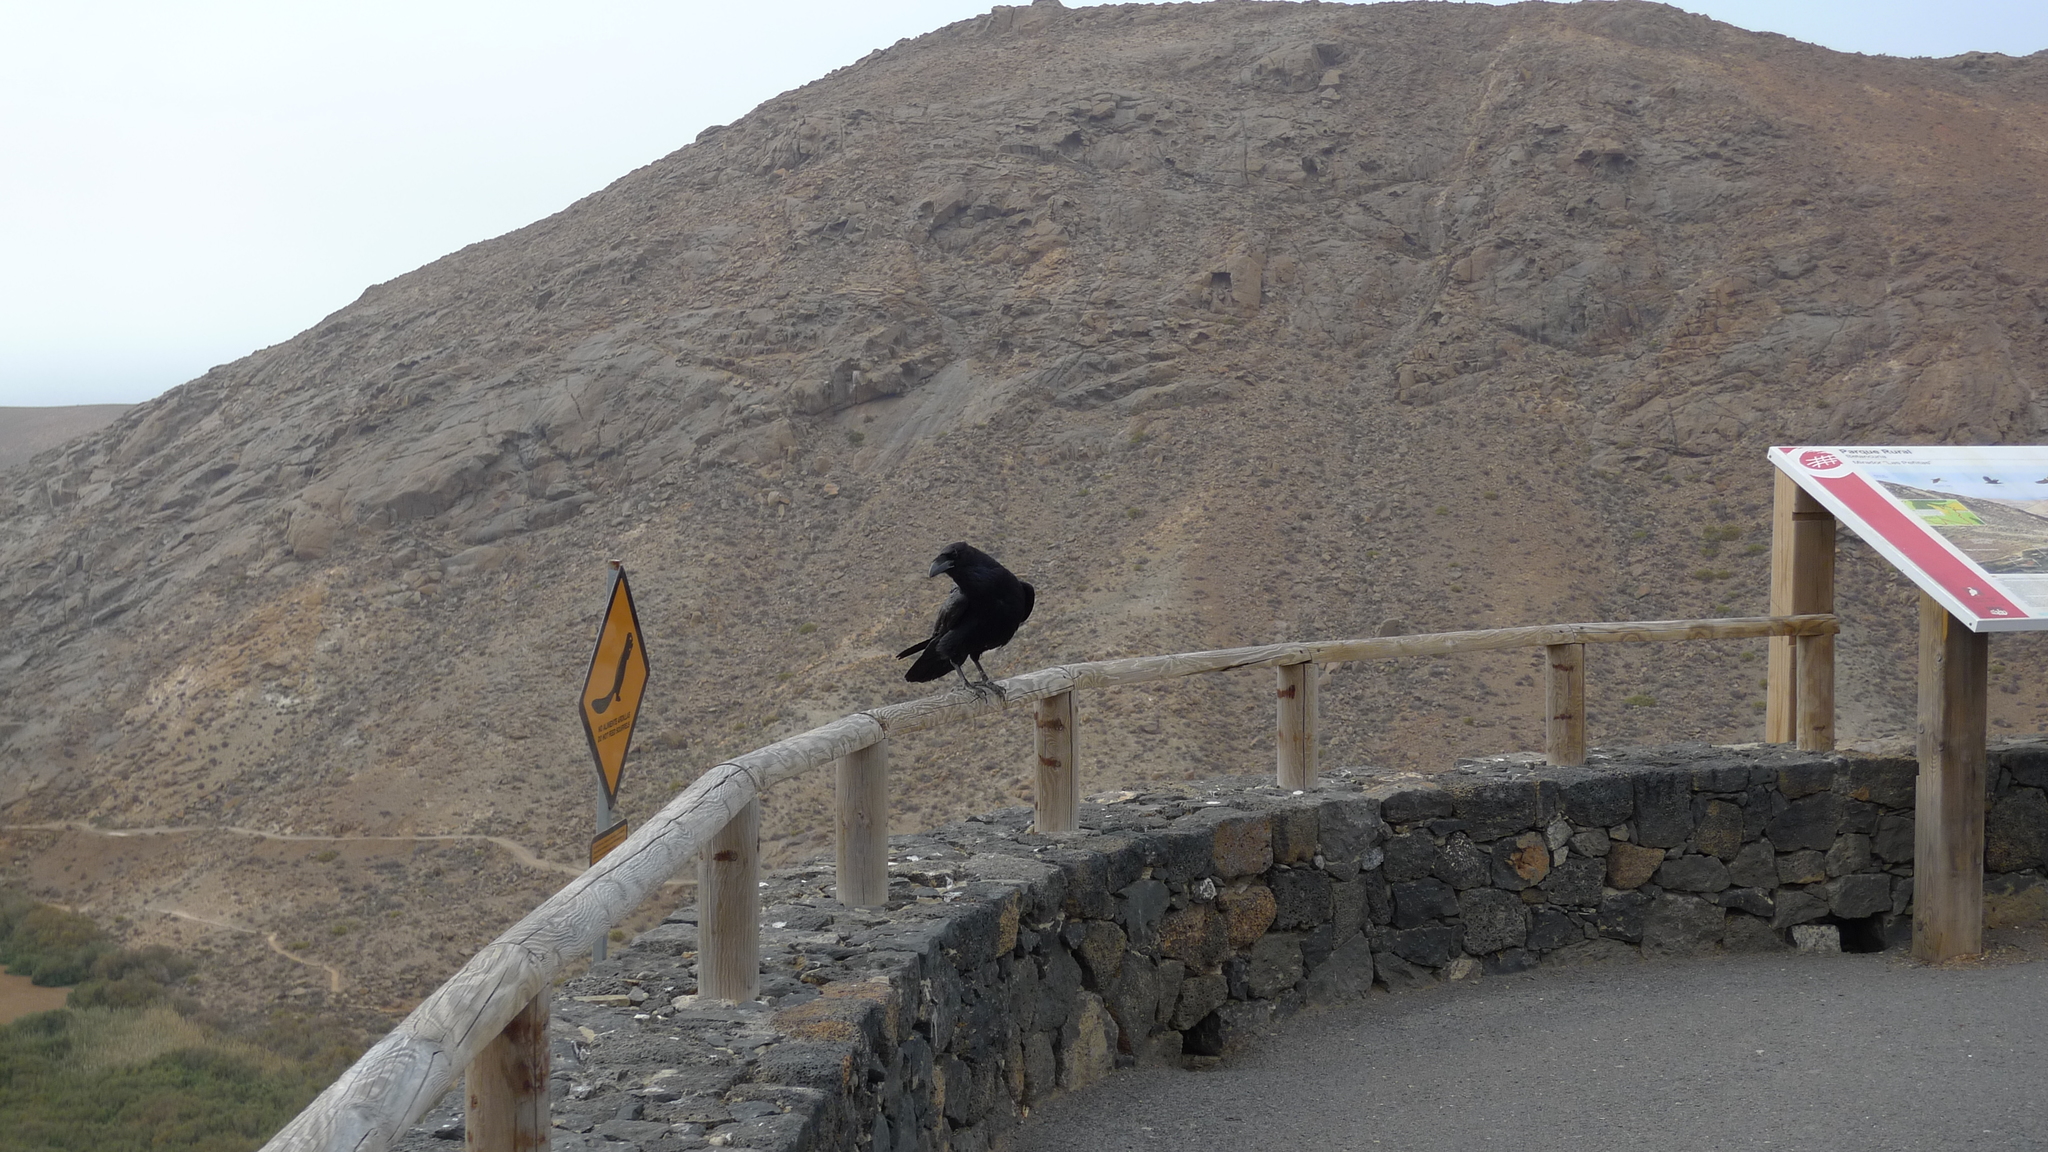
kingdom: Animalia
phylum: Chordata
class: Aves
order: Passeriformes
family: Corvidae
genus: Corvus
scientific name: Corvus corax
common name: Common raven
